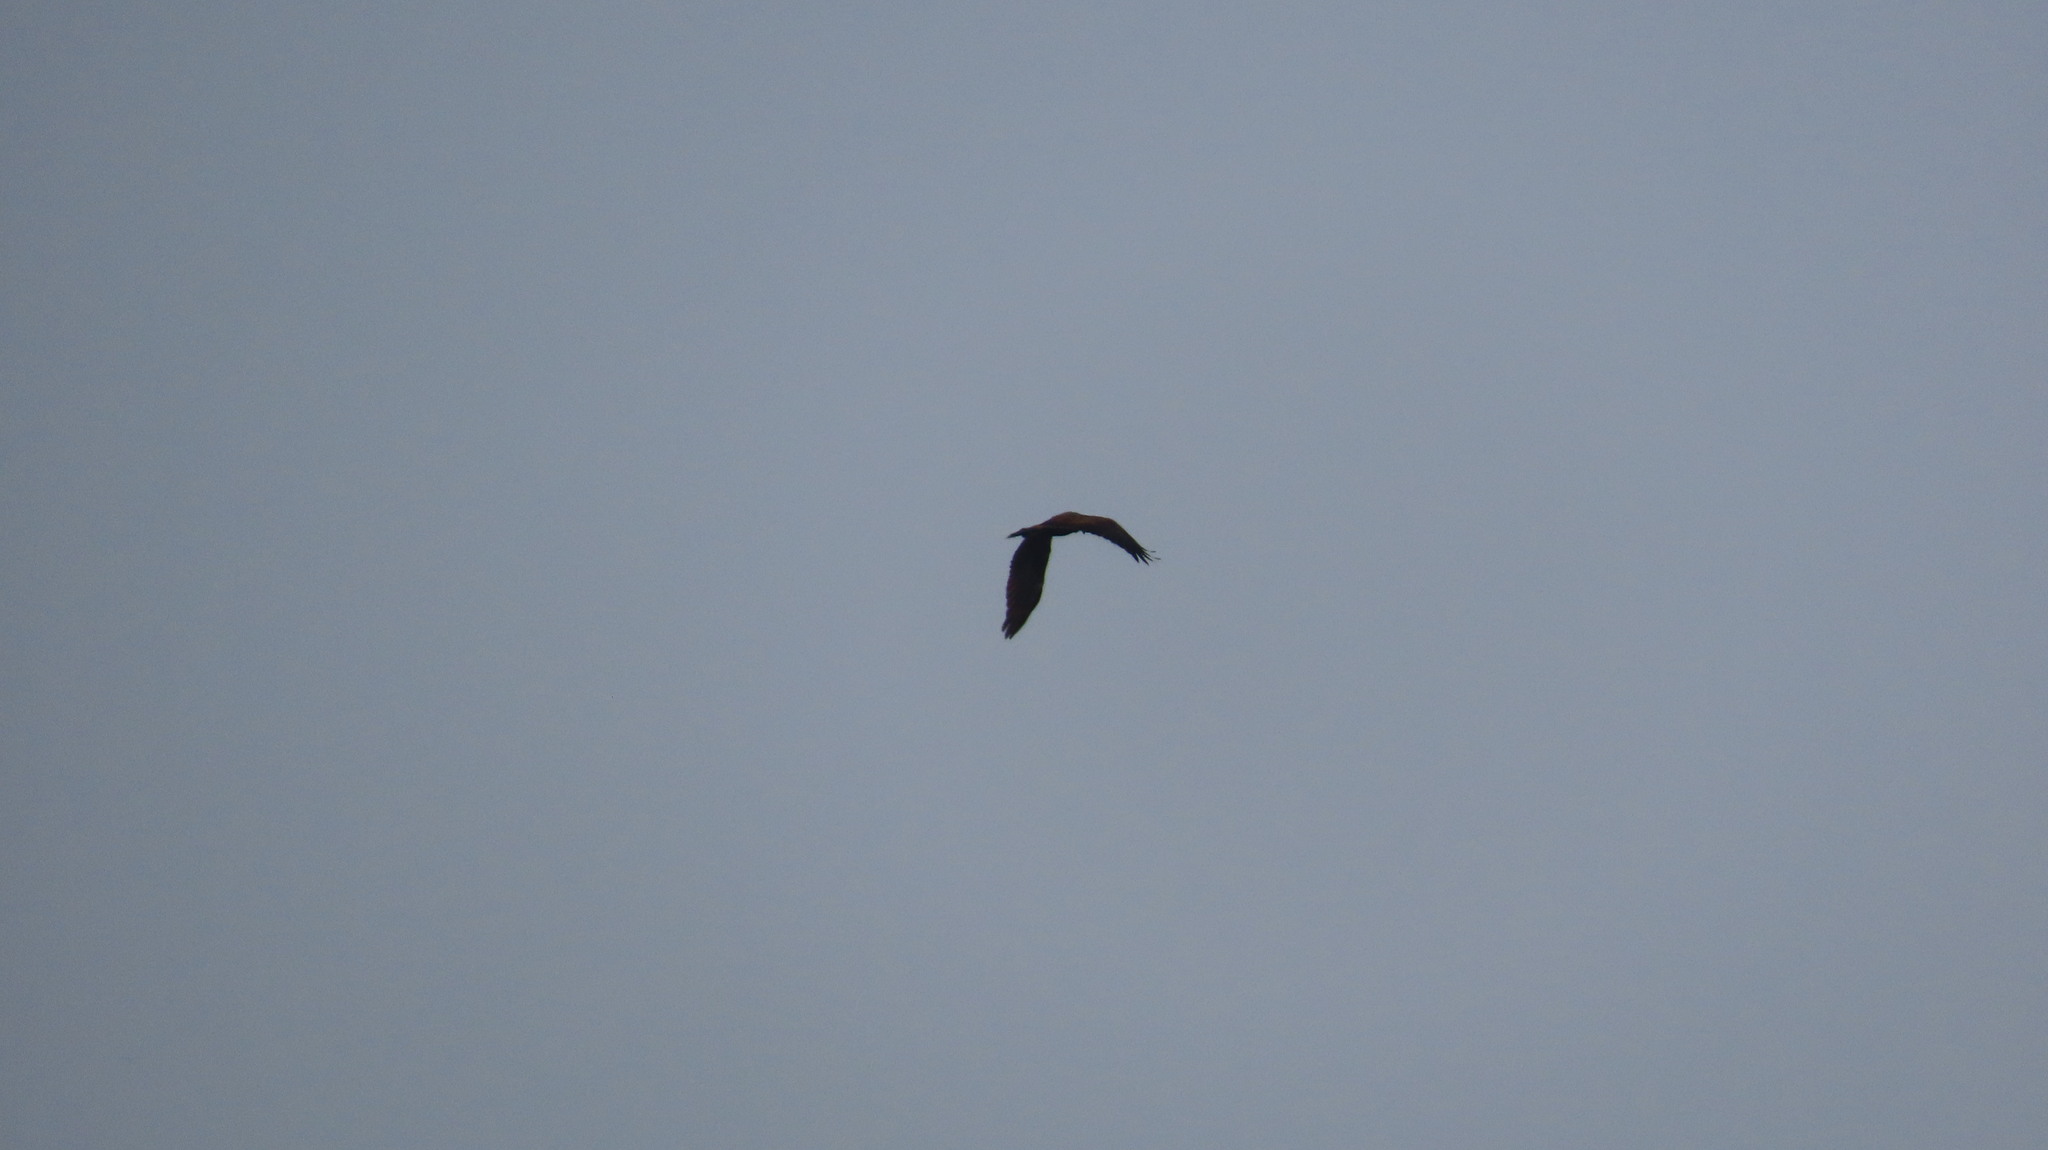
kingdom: Animalia
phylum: Chordata
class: Aves
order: Accipitriformes
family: Accipitridae
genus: Circus
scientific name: Circus aeruginosus
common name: Western marsh harrier
